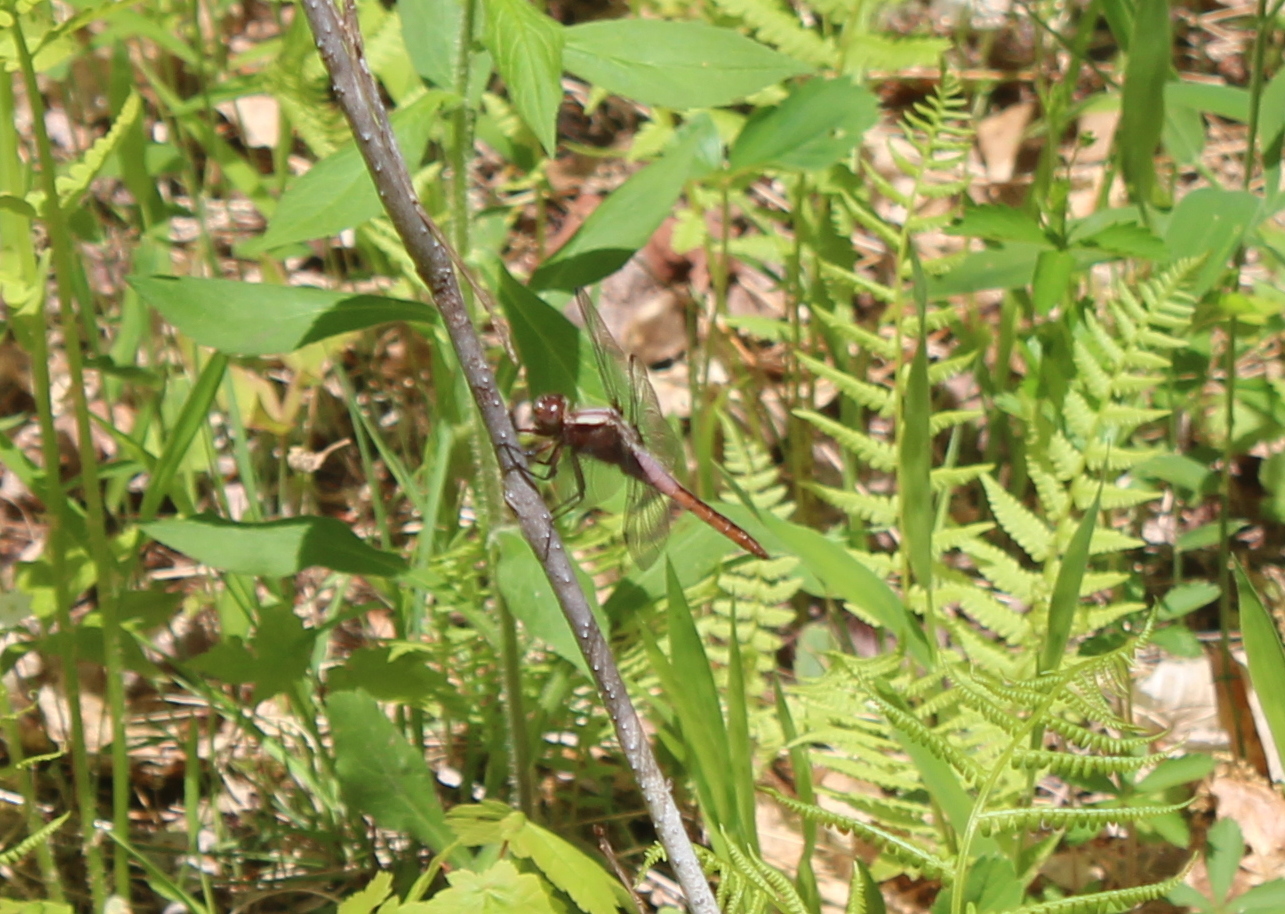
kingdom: Animalia
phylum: Arthropoda
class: Insecta
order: Odonata
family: Libellulidae
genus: Ladona
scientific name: Ladona julia
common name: Chalk-fronted corporal
